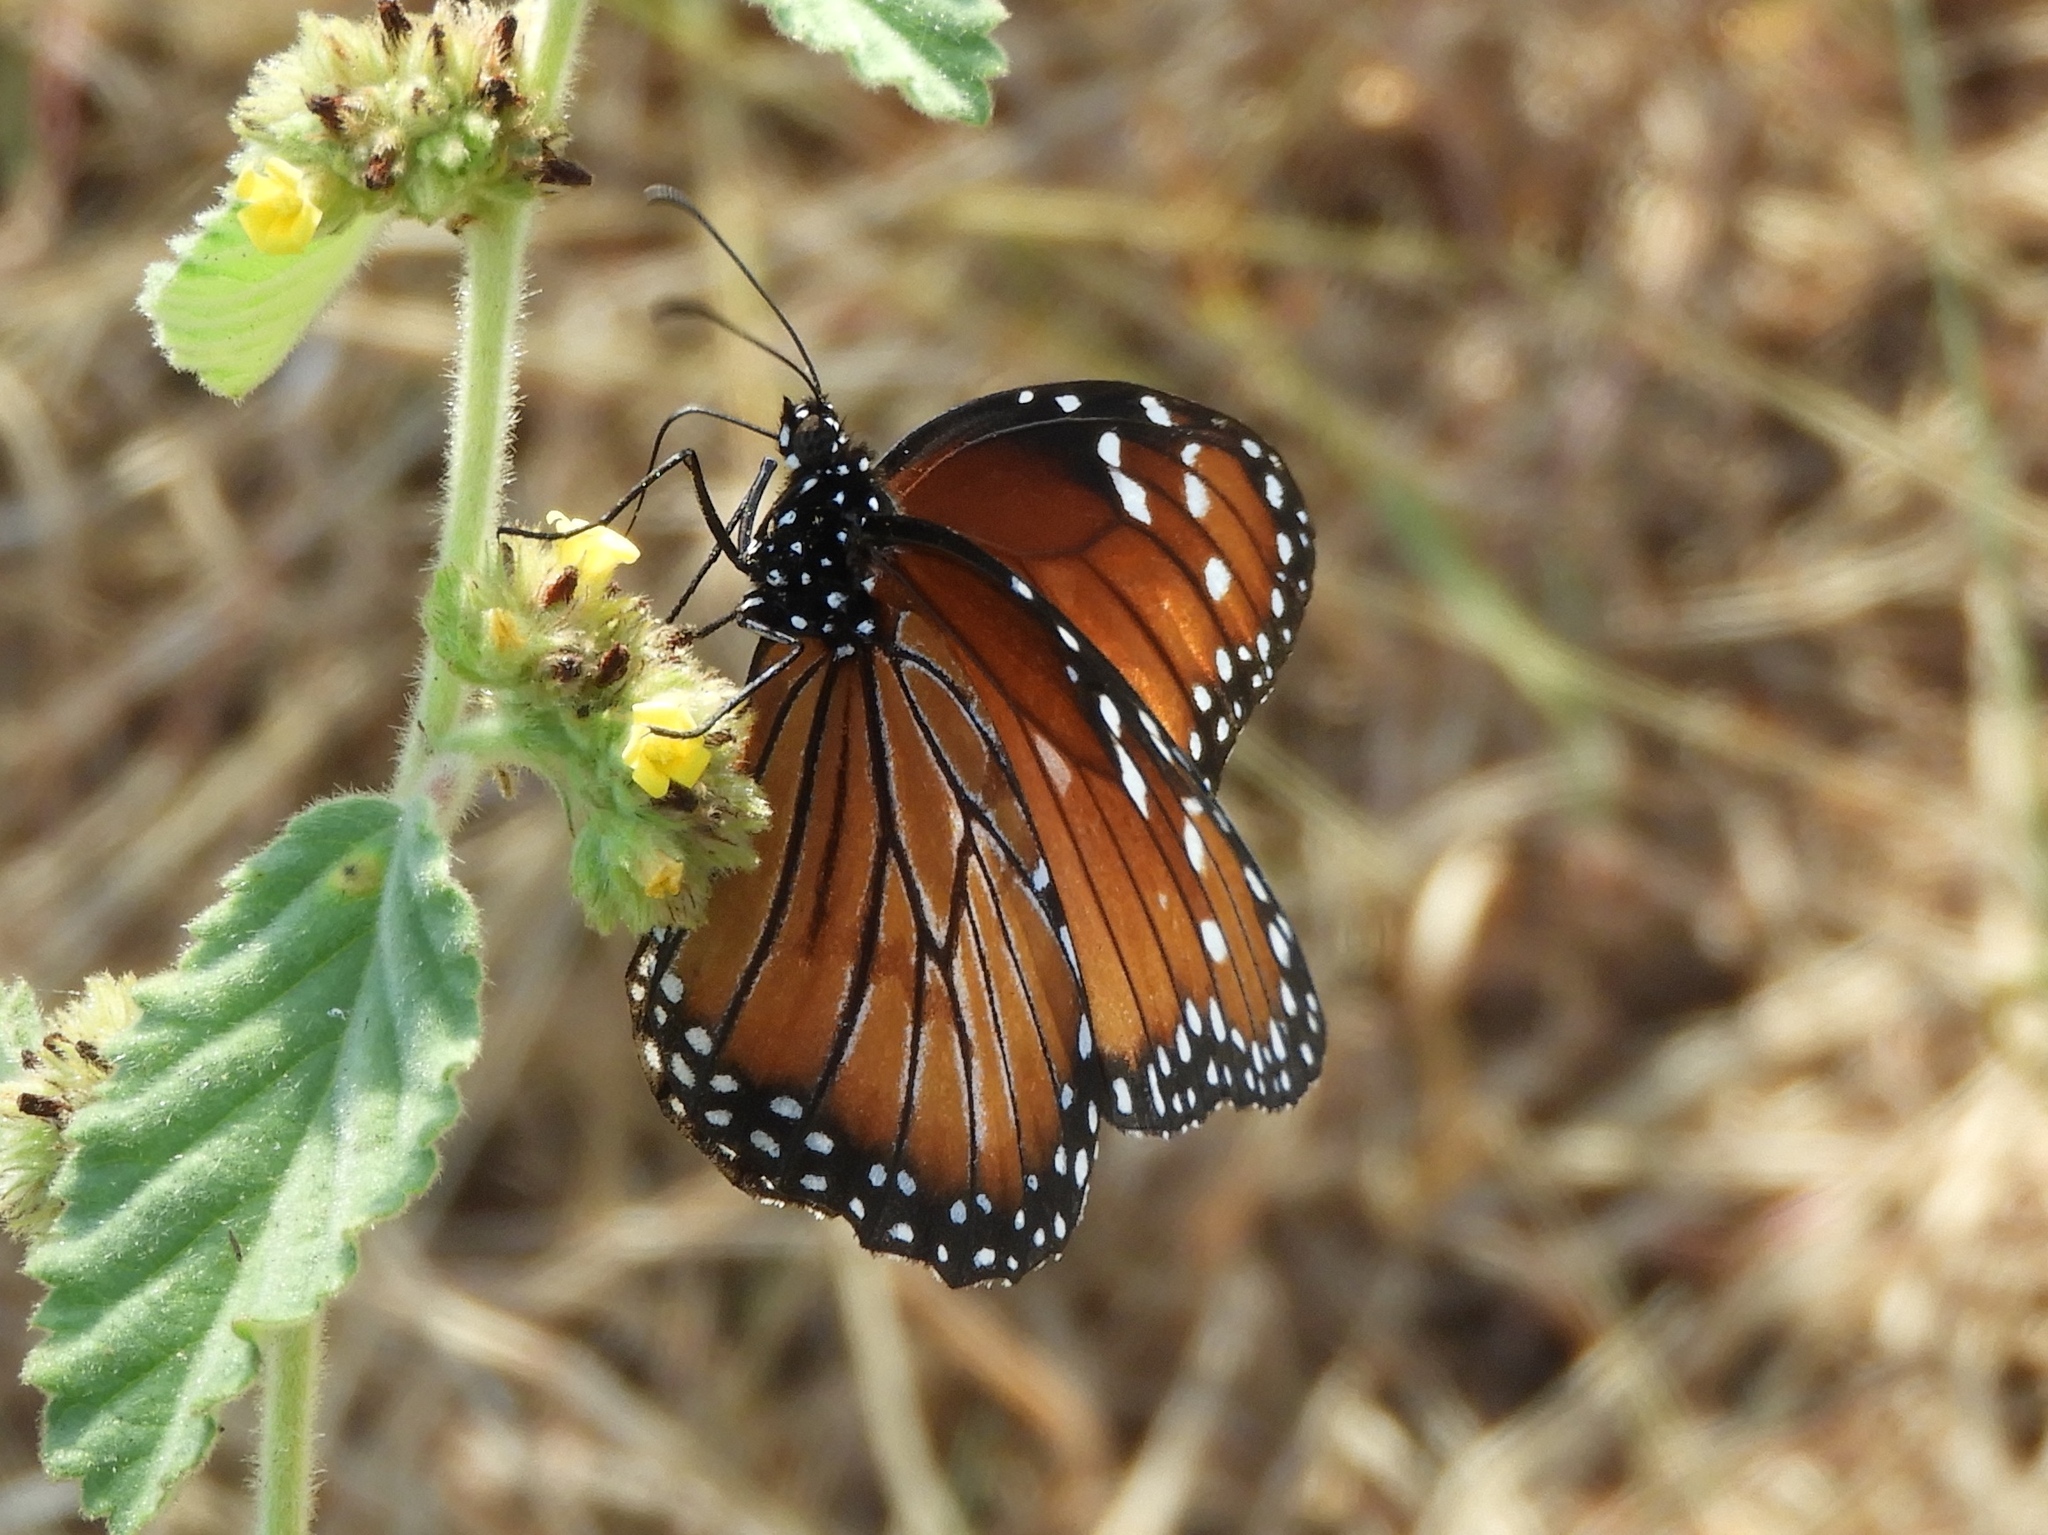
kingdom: Animalia
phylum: Arthropoda
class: Insecta
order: Lepidoptera
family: Nymphalidae
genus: Danaus
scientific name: Danaus eresimus
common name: Soldier
